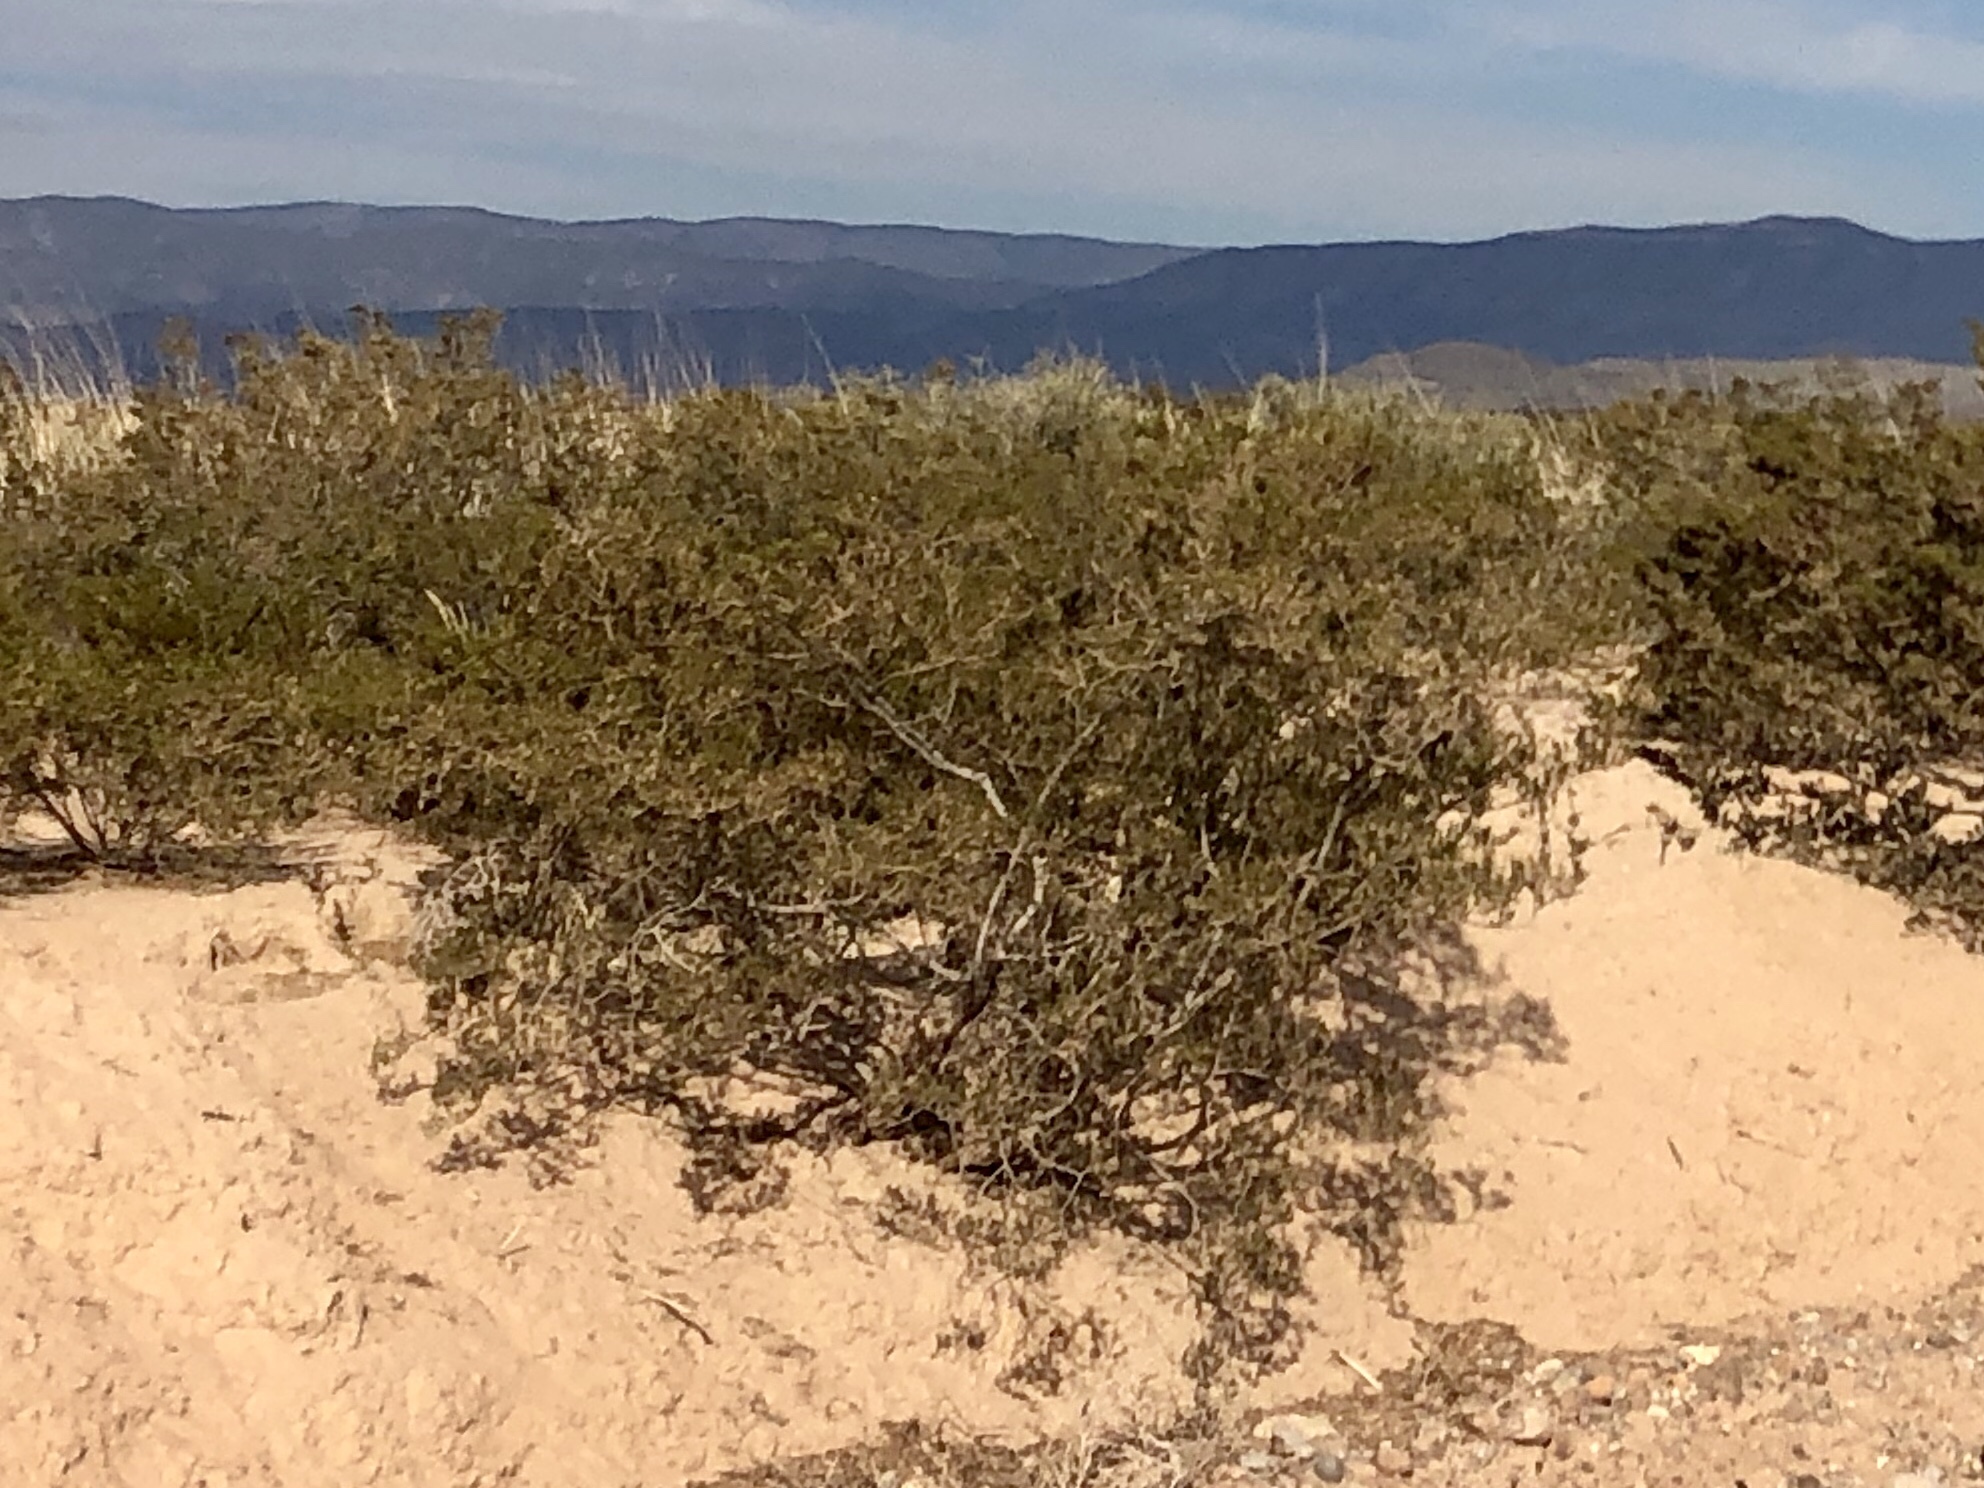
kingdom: Plantae
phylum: Tracheophyta
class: Magnoliopsida
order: Zygophyllales
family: Zygophyllaceae
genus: Larrea
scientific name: Larrea tridentata
